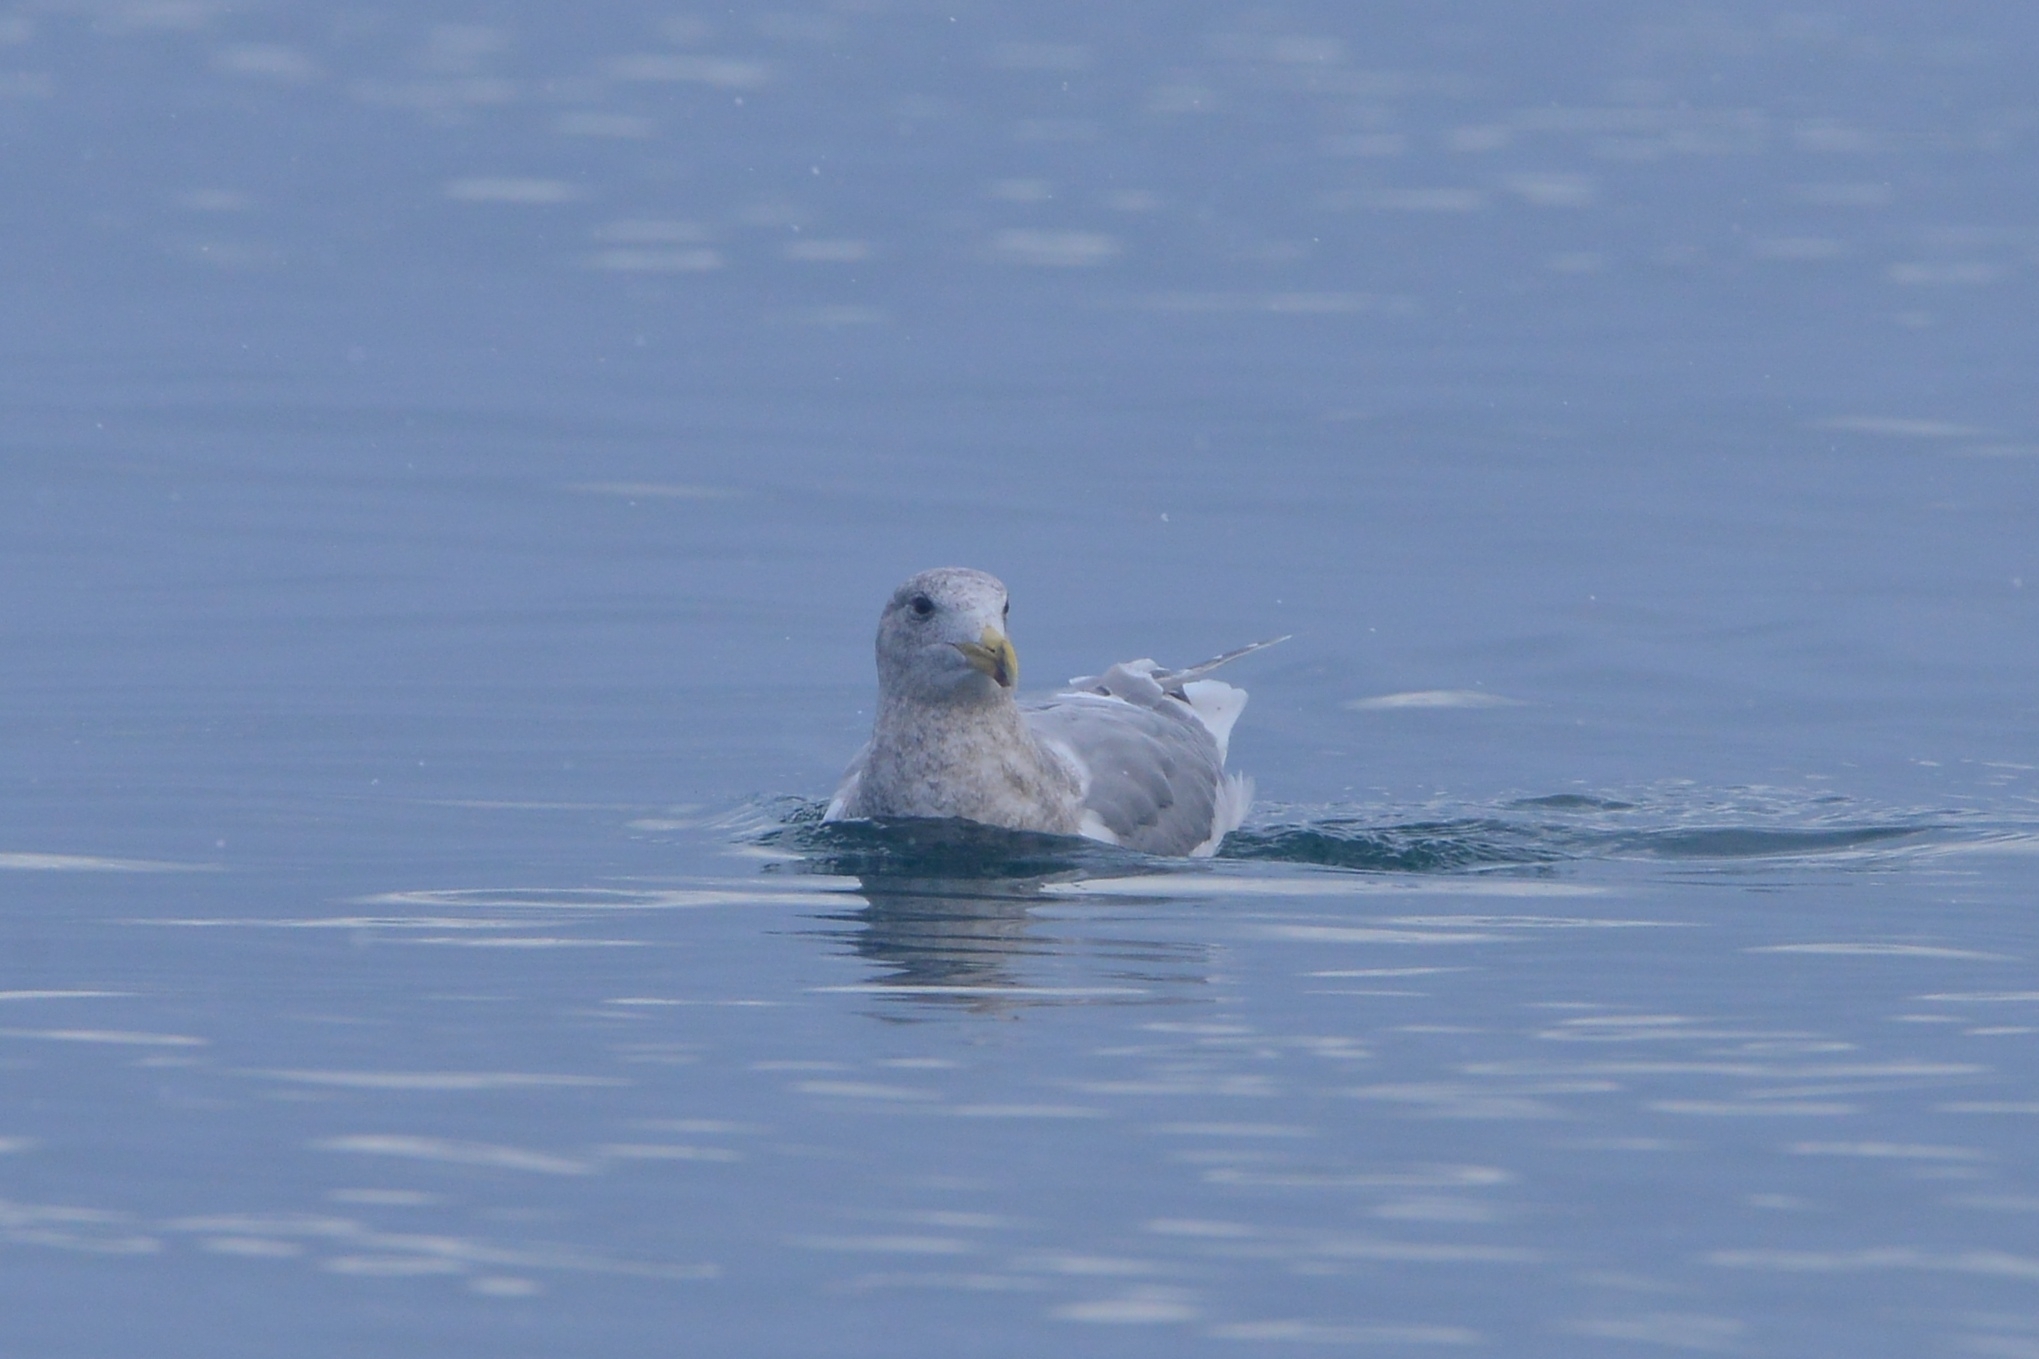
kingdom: Animalia
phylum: Chordata
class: Aves
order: Charadriiformes
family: Laridae
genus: Larus
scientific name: Larus glaucescens
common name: Glaucous-winged gull
